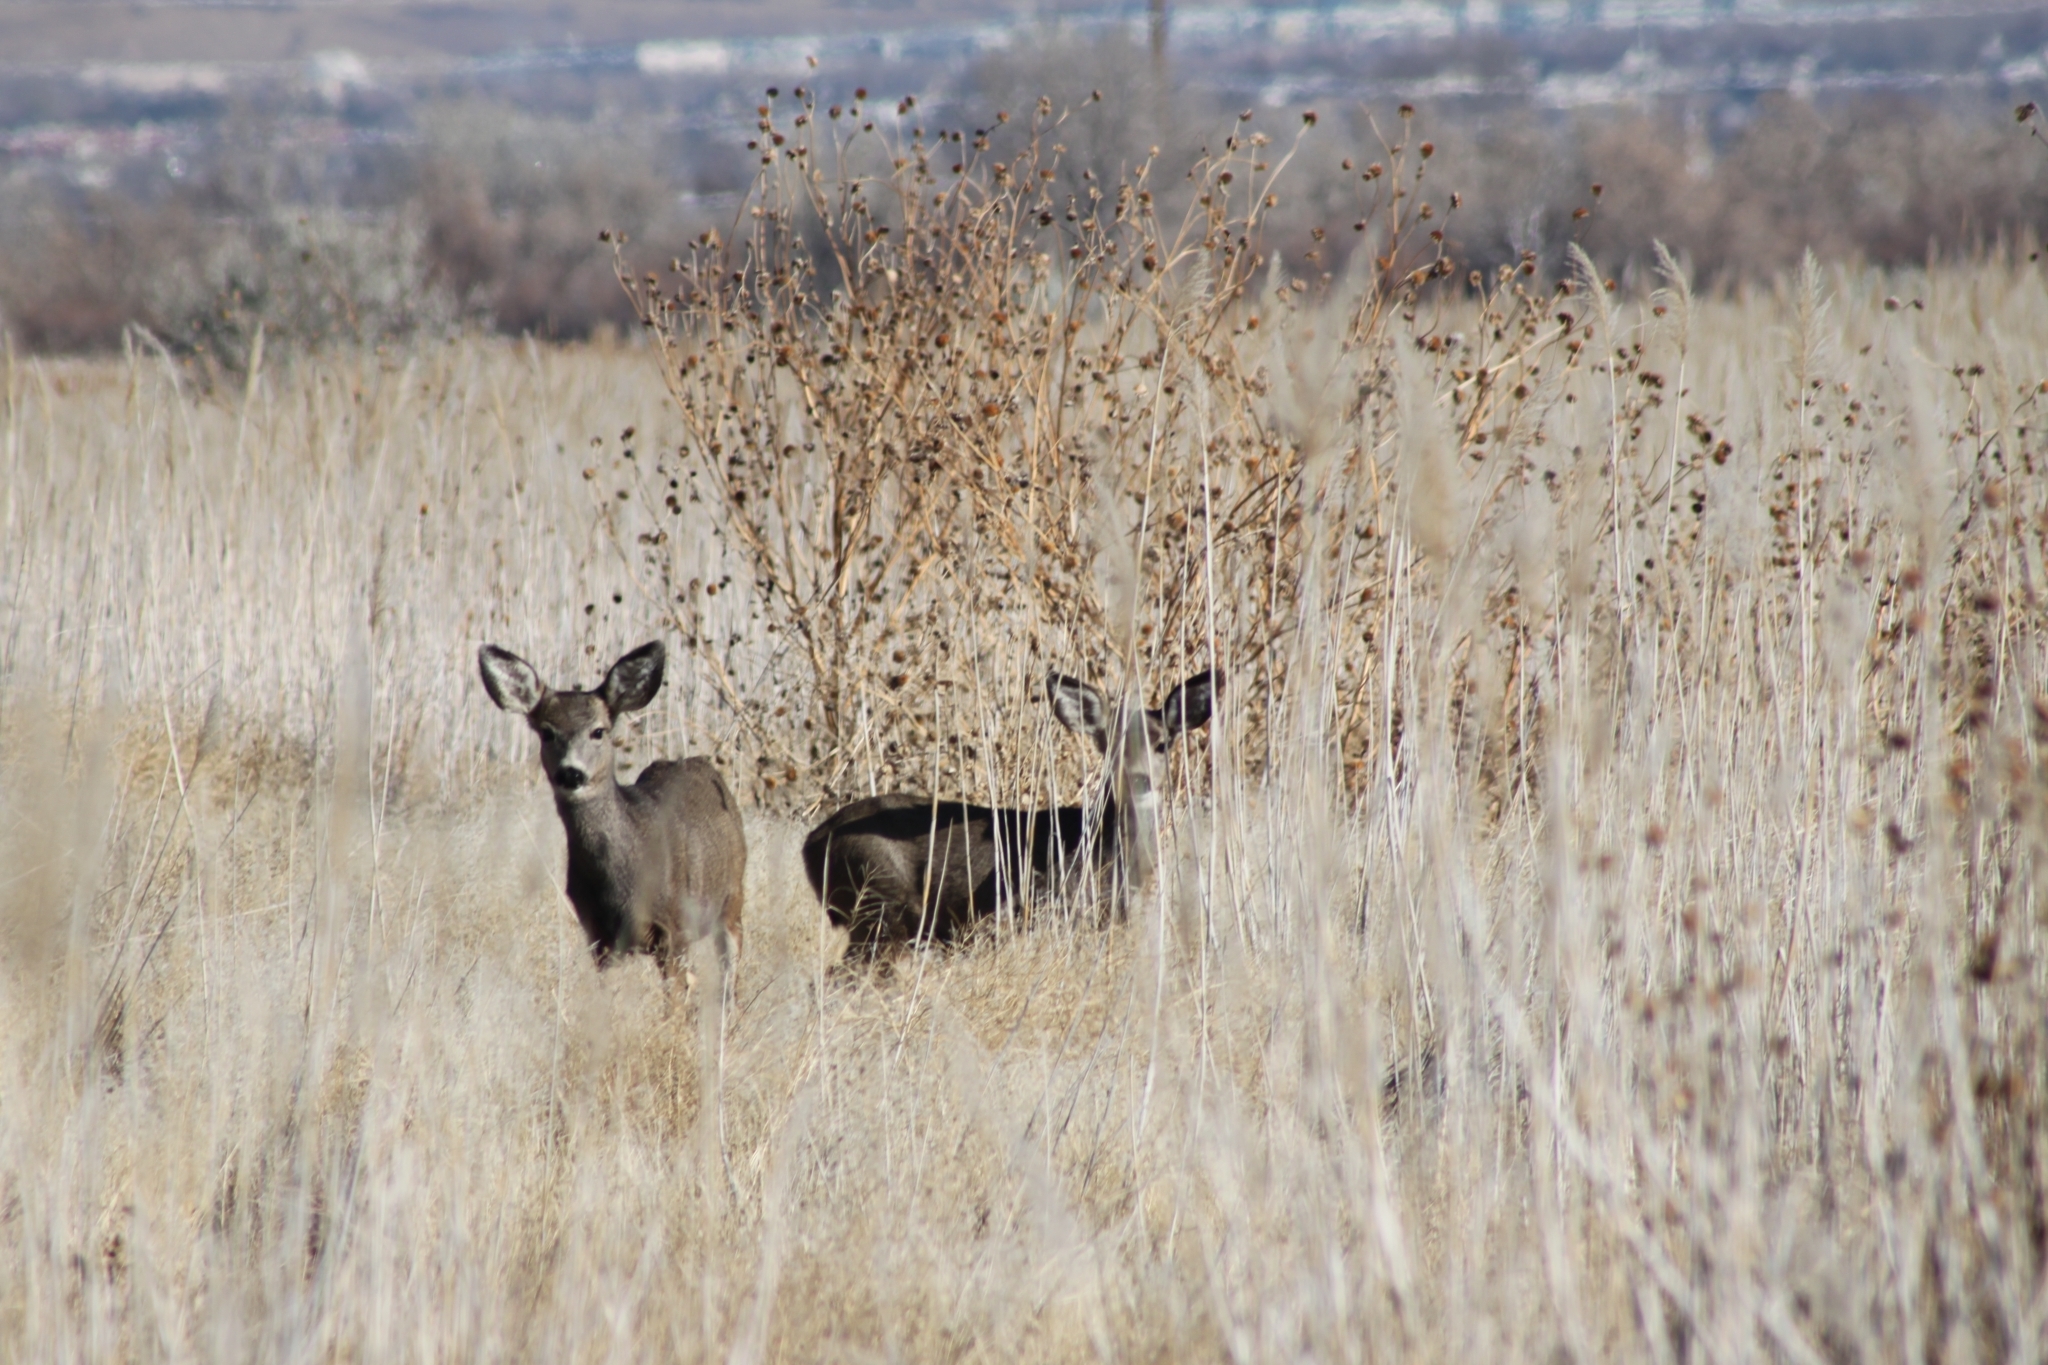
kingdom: Animalia
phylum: Chordata
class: Mammalia
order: Artiodactyla
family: Cervidae
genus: Odocoileus
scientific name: Odocoileus hemionus
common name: Mule deer
